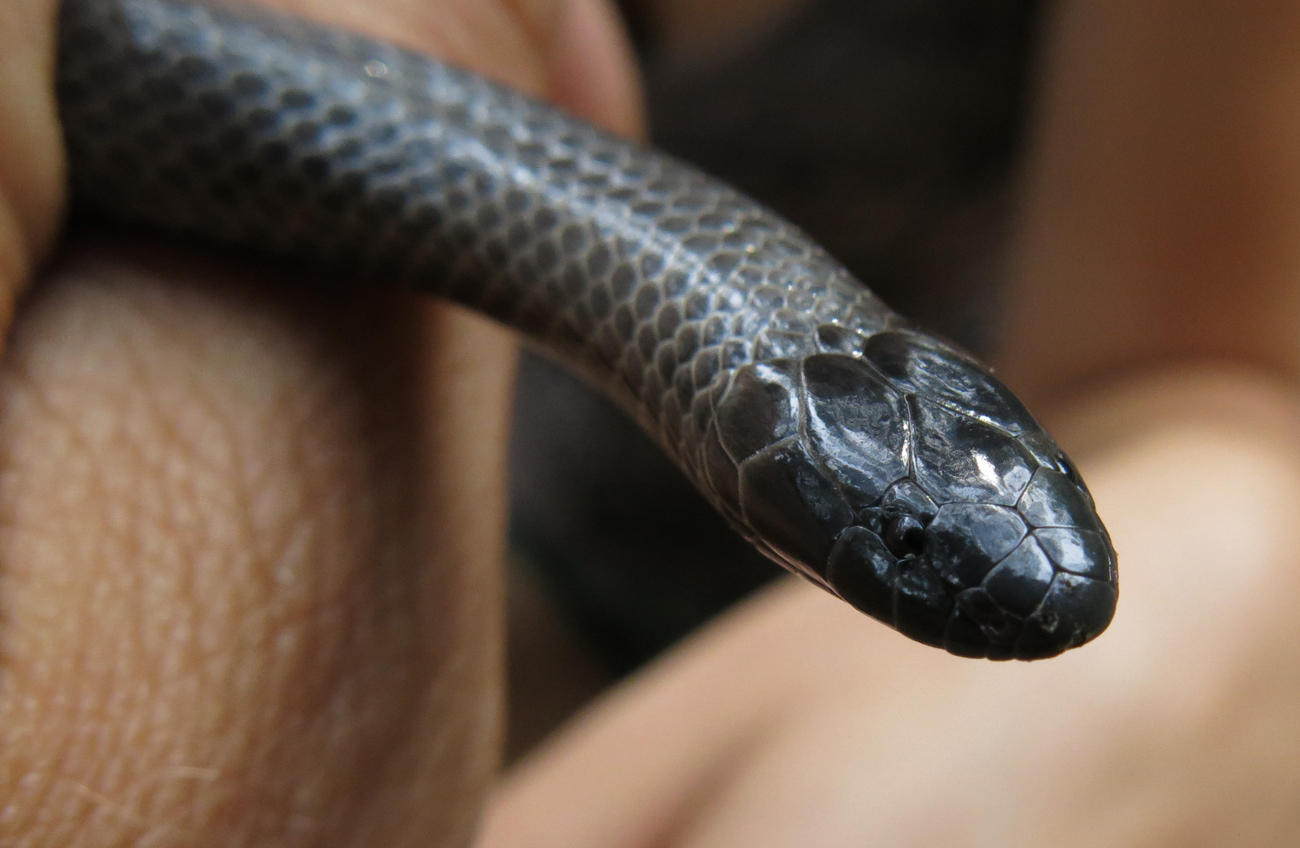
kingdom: Animalia
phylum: Chordata
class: Squamata
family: Atractaspididae
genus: Amblyodipsas
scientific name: Amblyodipsas polylepis
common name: Common purple-glossed snake
